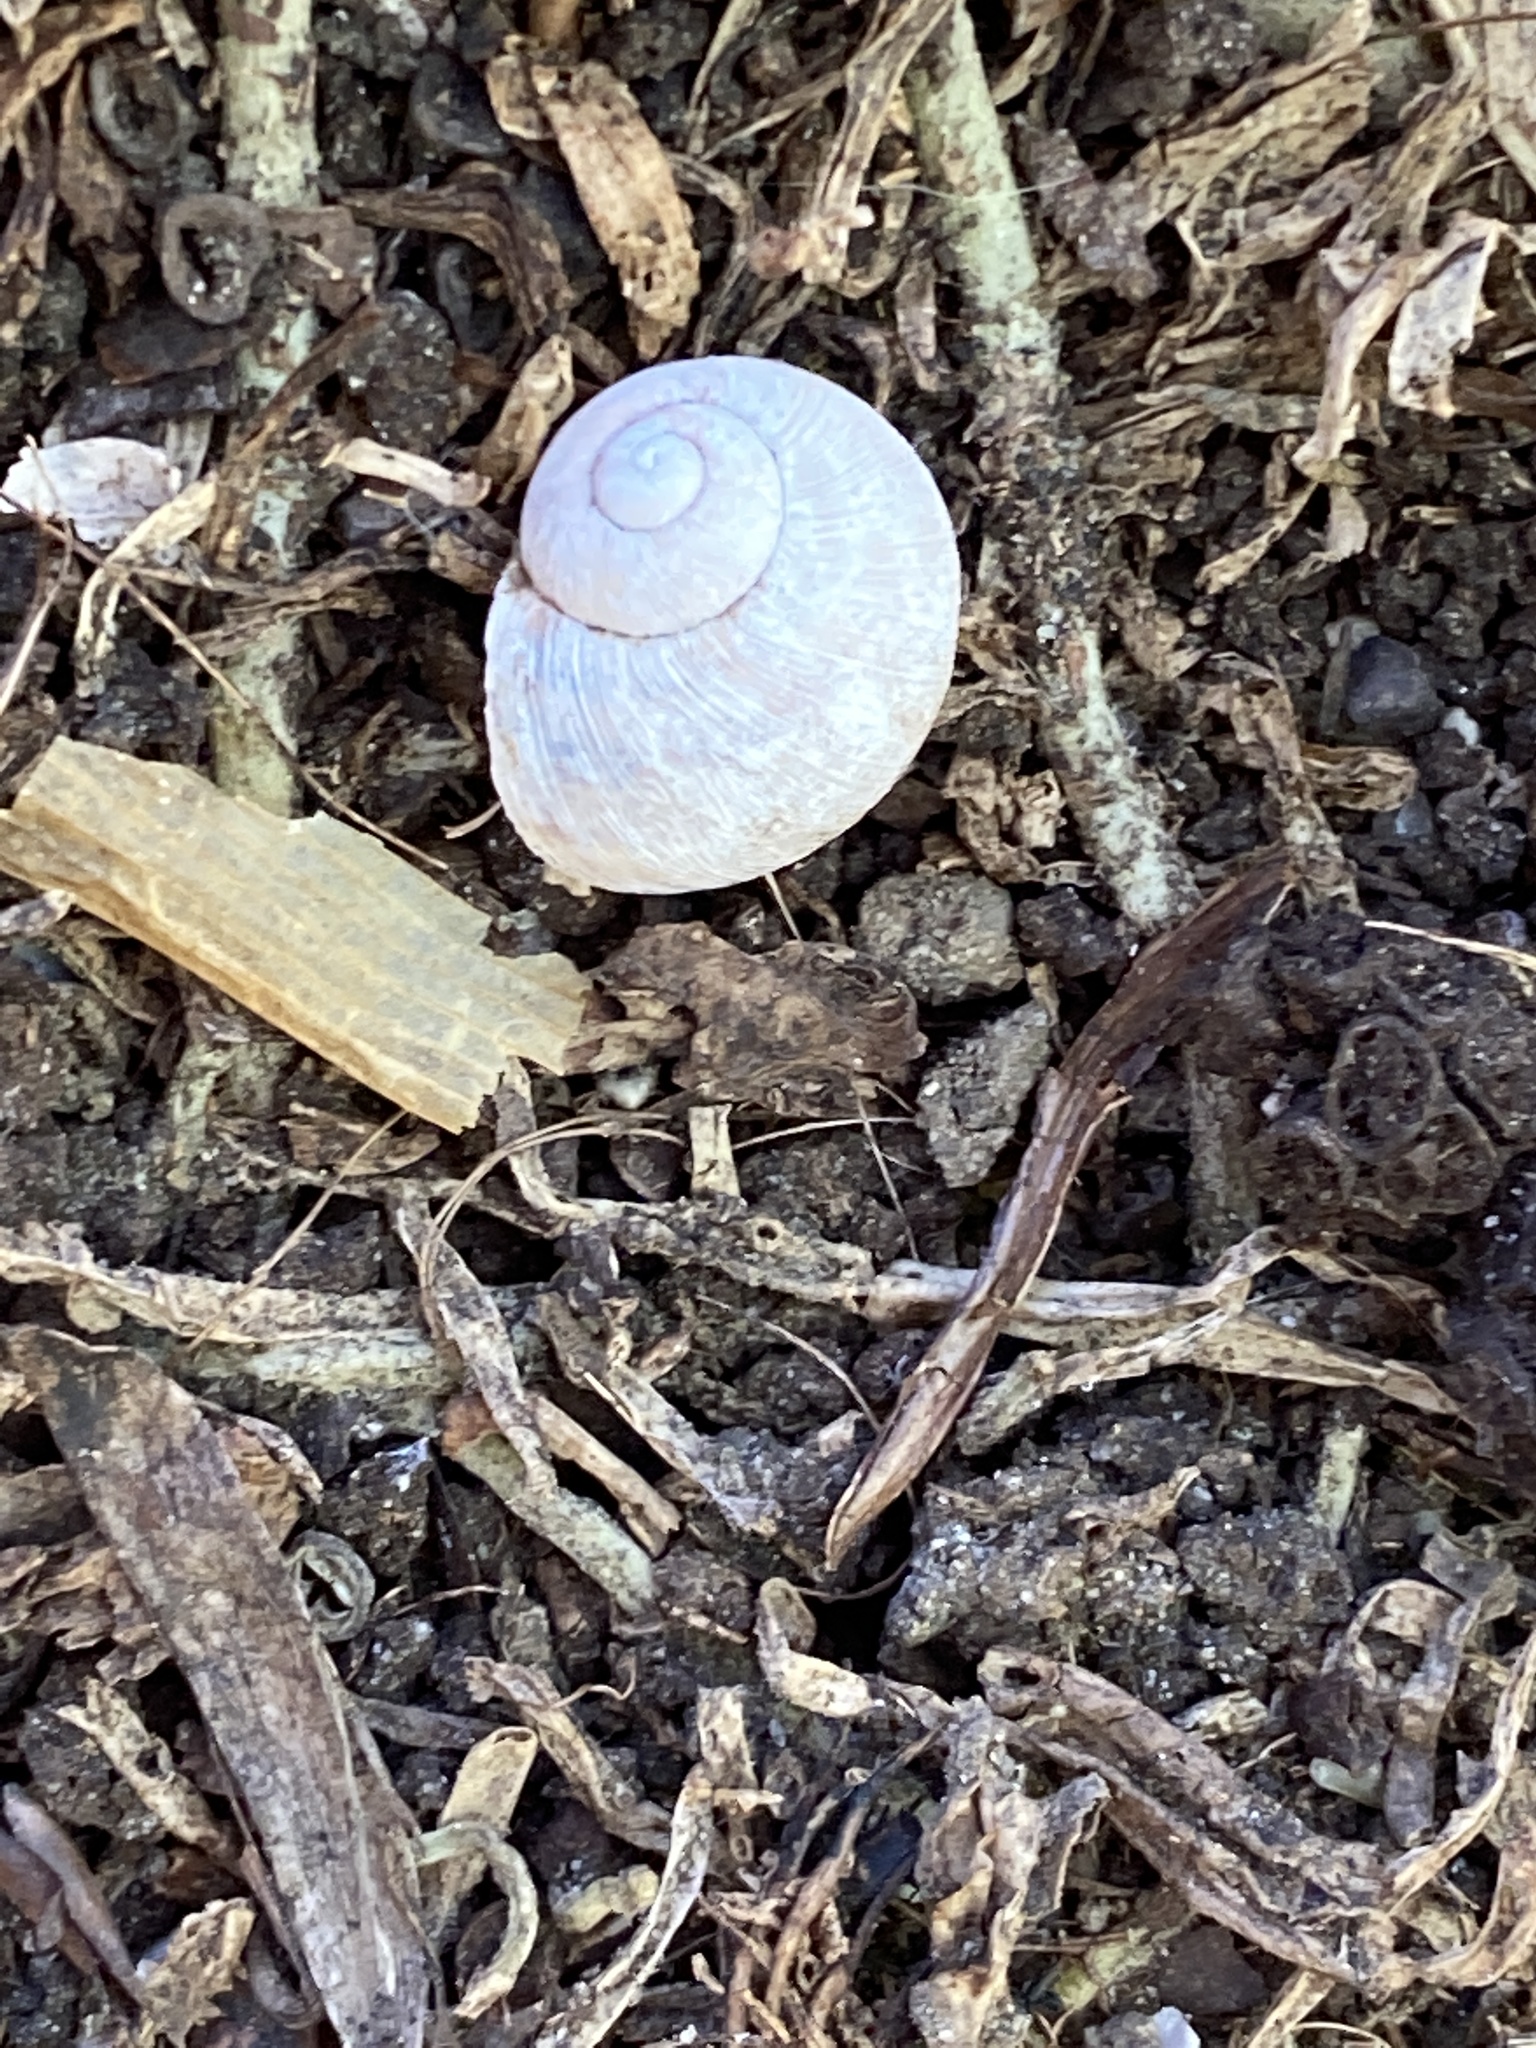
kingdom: Animalia
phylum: Mollusca
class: Gastropoda
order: Stylommatophora
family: Helicidae
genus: Cornu
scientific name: Cornu aspersum
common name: Brown garden snail
